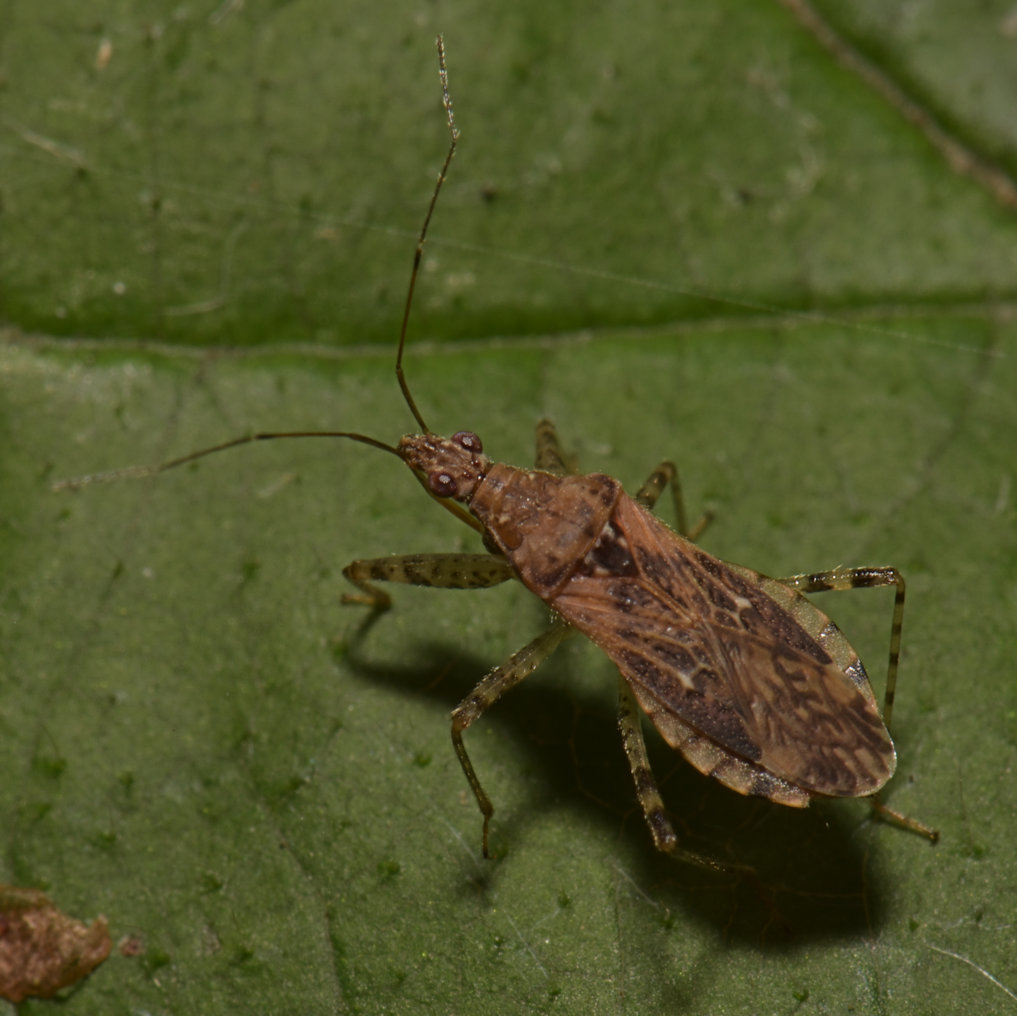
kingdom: Animalia
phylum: Arthropoda
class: Insecta
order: Hemiptera
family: Nabidae
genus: Hoplistoscelis
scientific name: Hoplistoscelis pallescens
